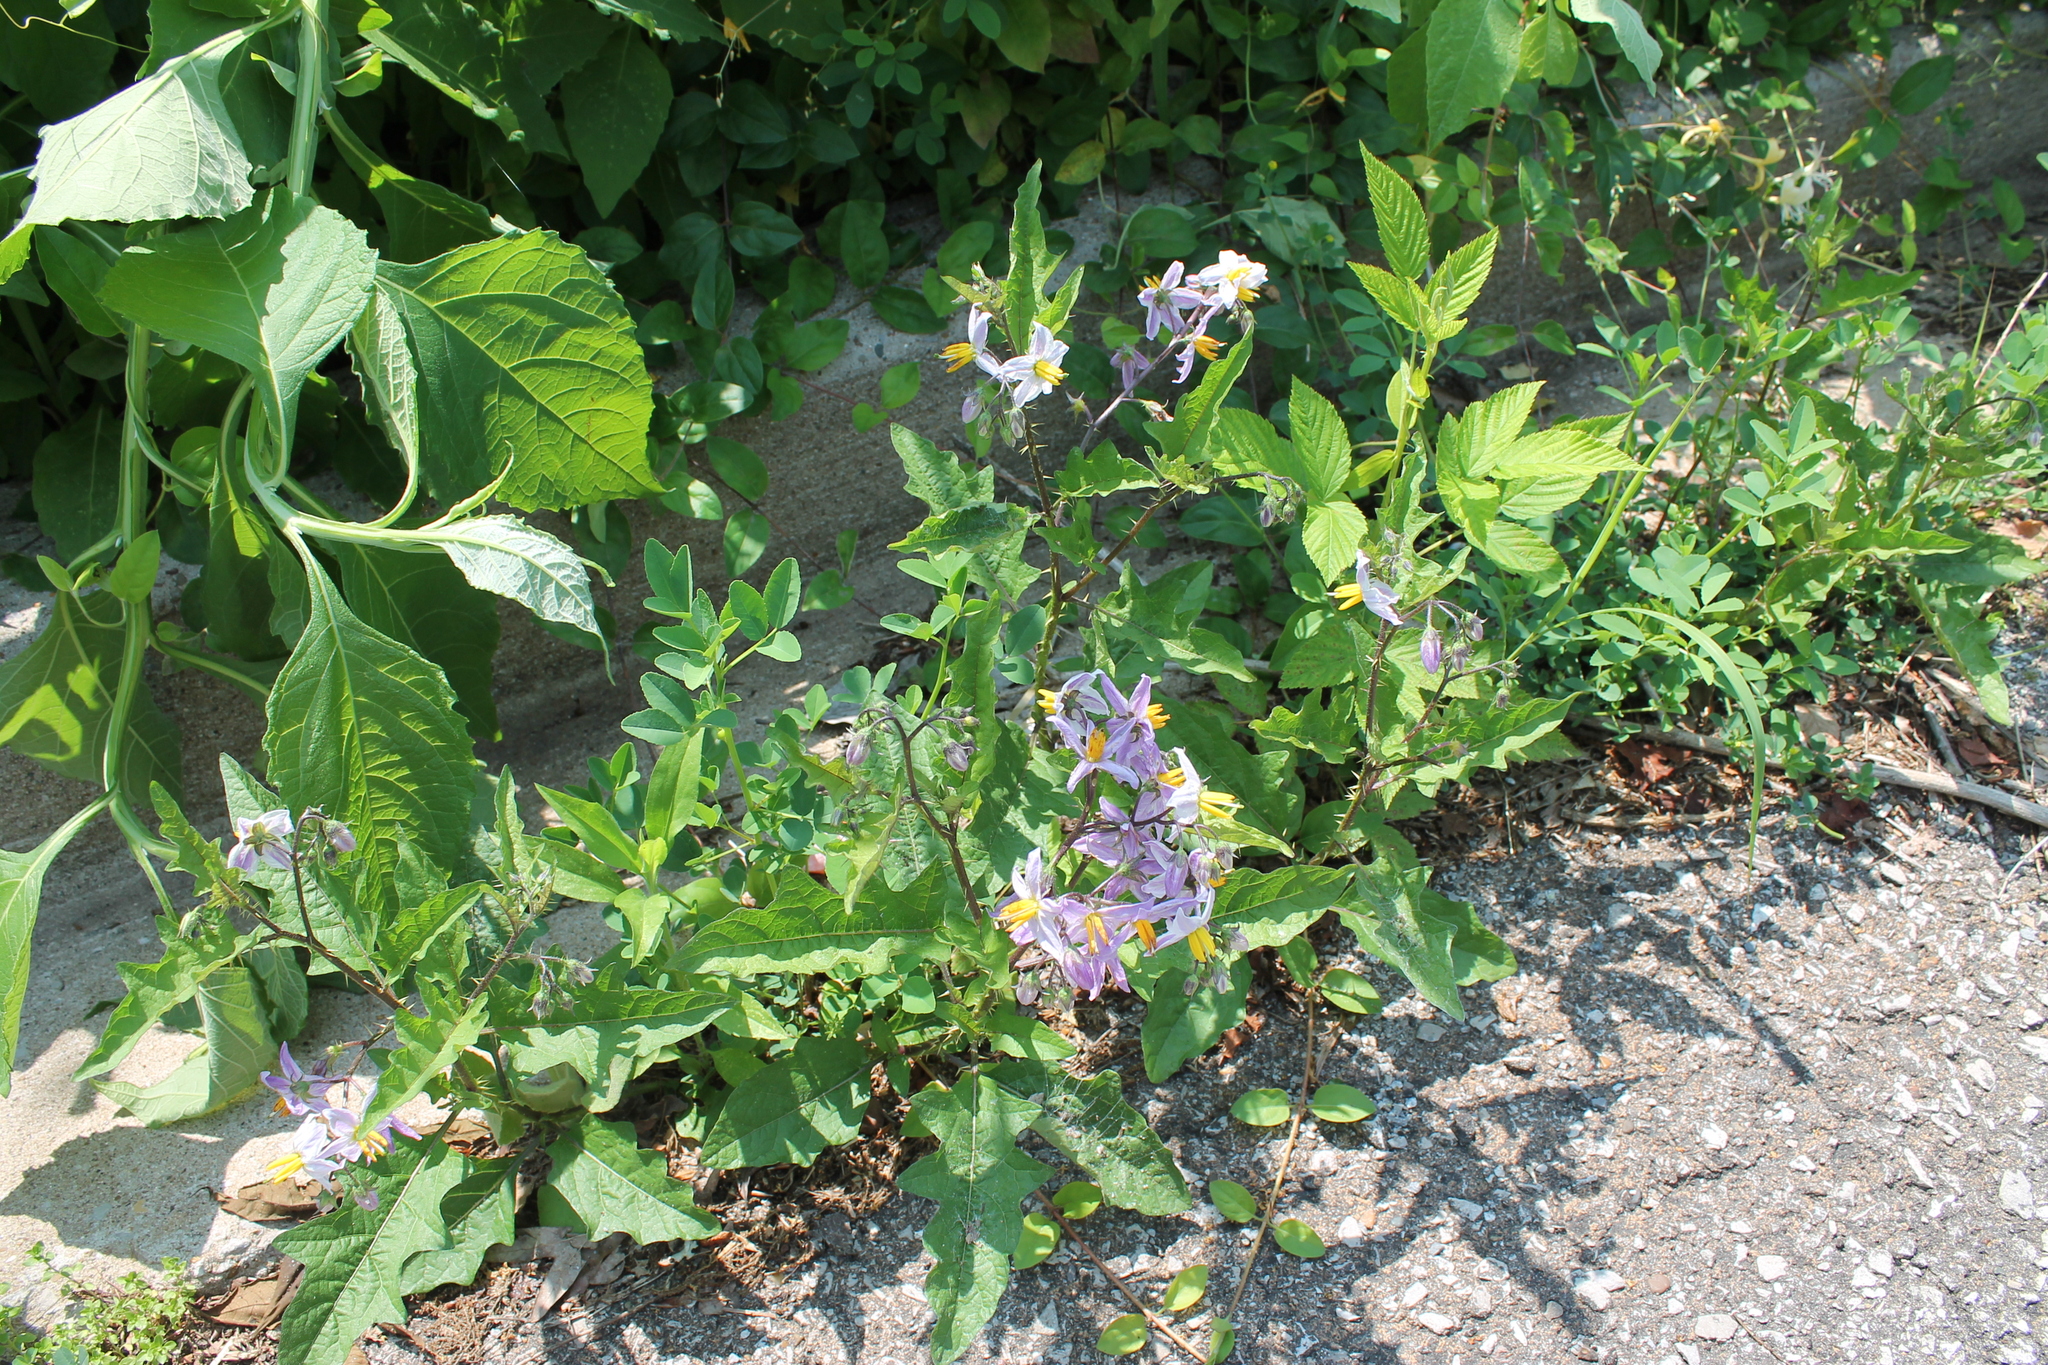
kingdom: Plantae
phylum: Tracheophyta
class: Magnoliopsida
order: Solanales
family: Solanaceae
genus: Solanum
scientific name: Solanum carolinense
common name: Horse-nettle
